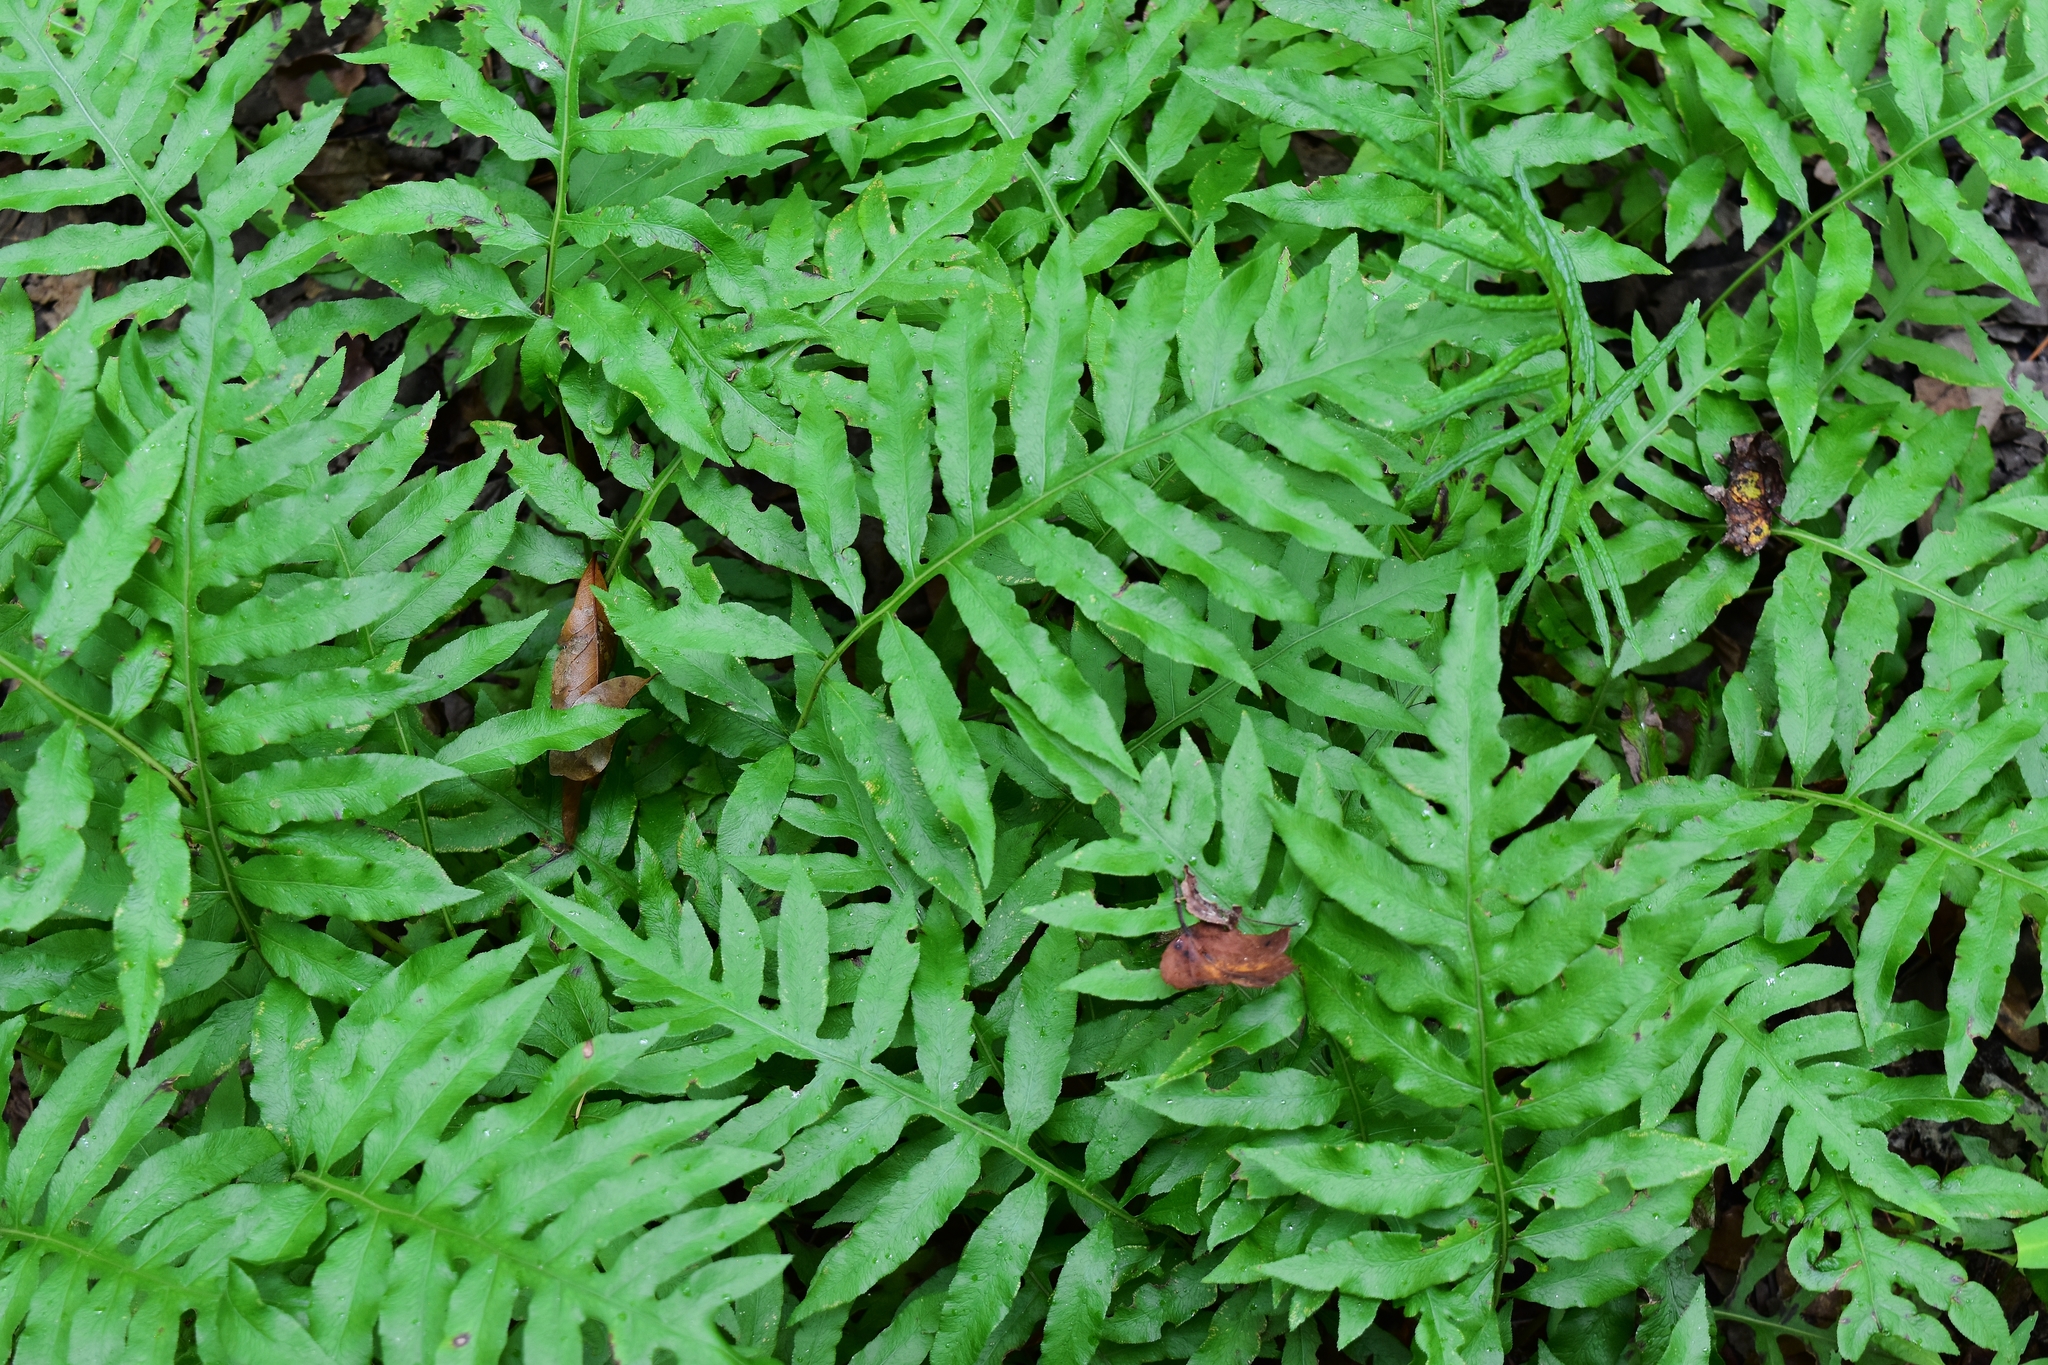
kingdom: Plantae
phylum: Tracheophyta
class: Polypodiopsida
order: Polypodiales
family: Blechnaceae
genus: Lorinseria
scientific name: Lorinseria areolata
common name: Dwarf chain fern
